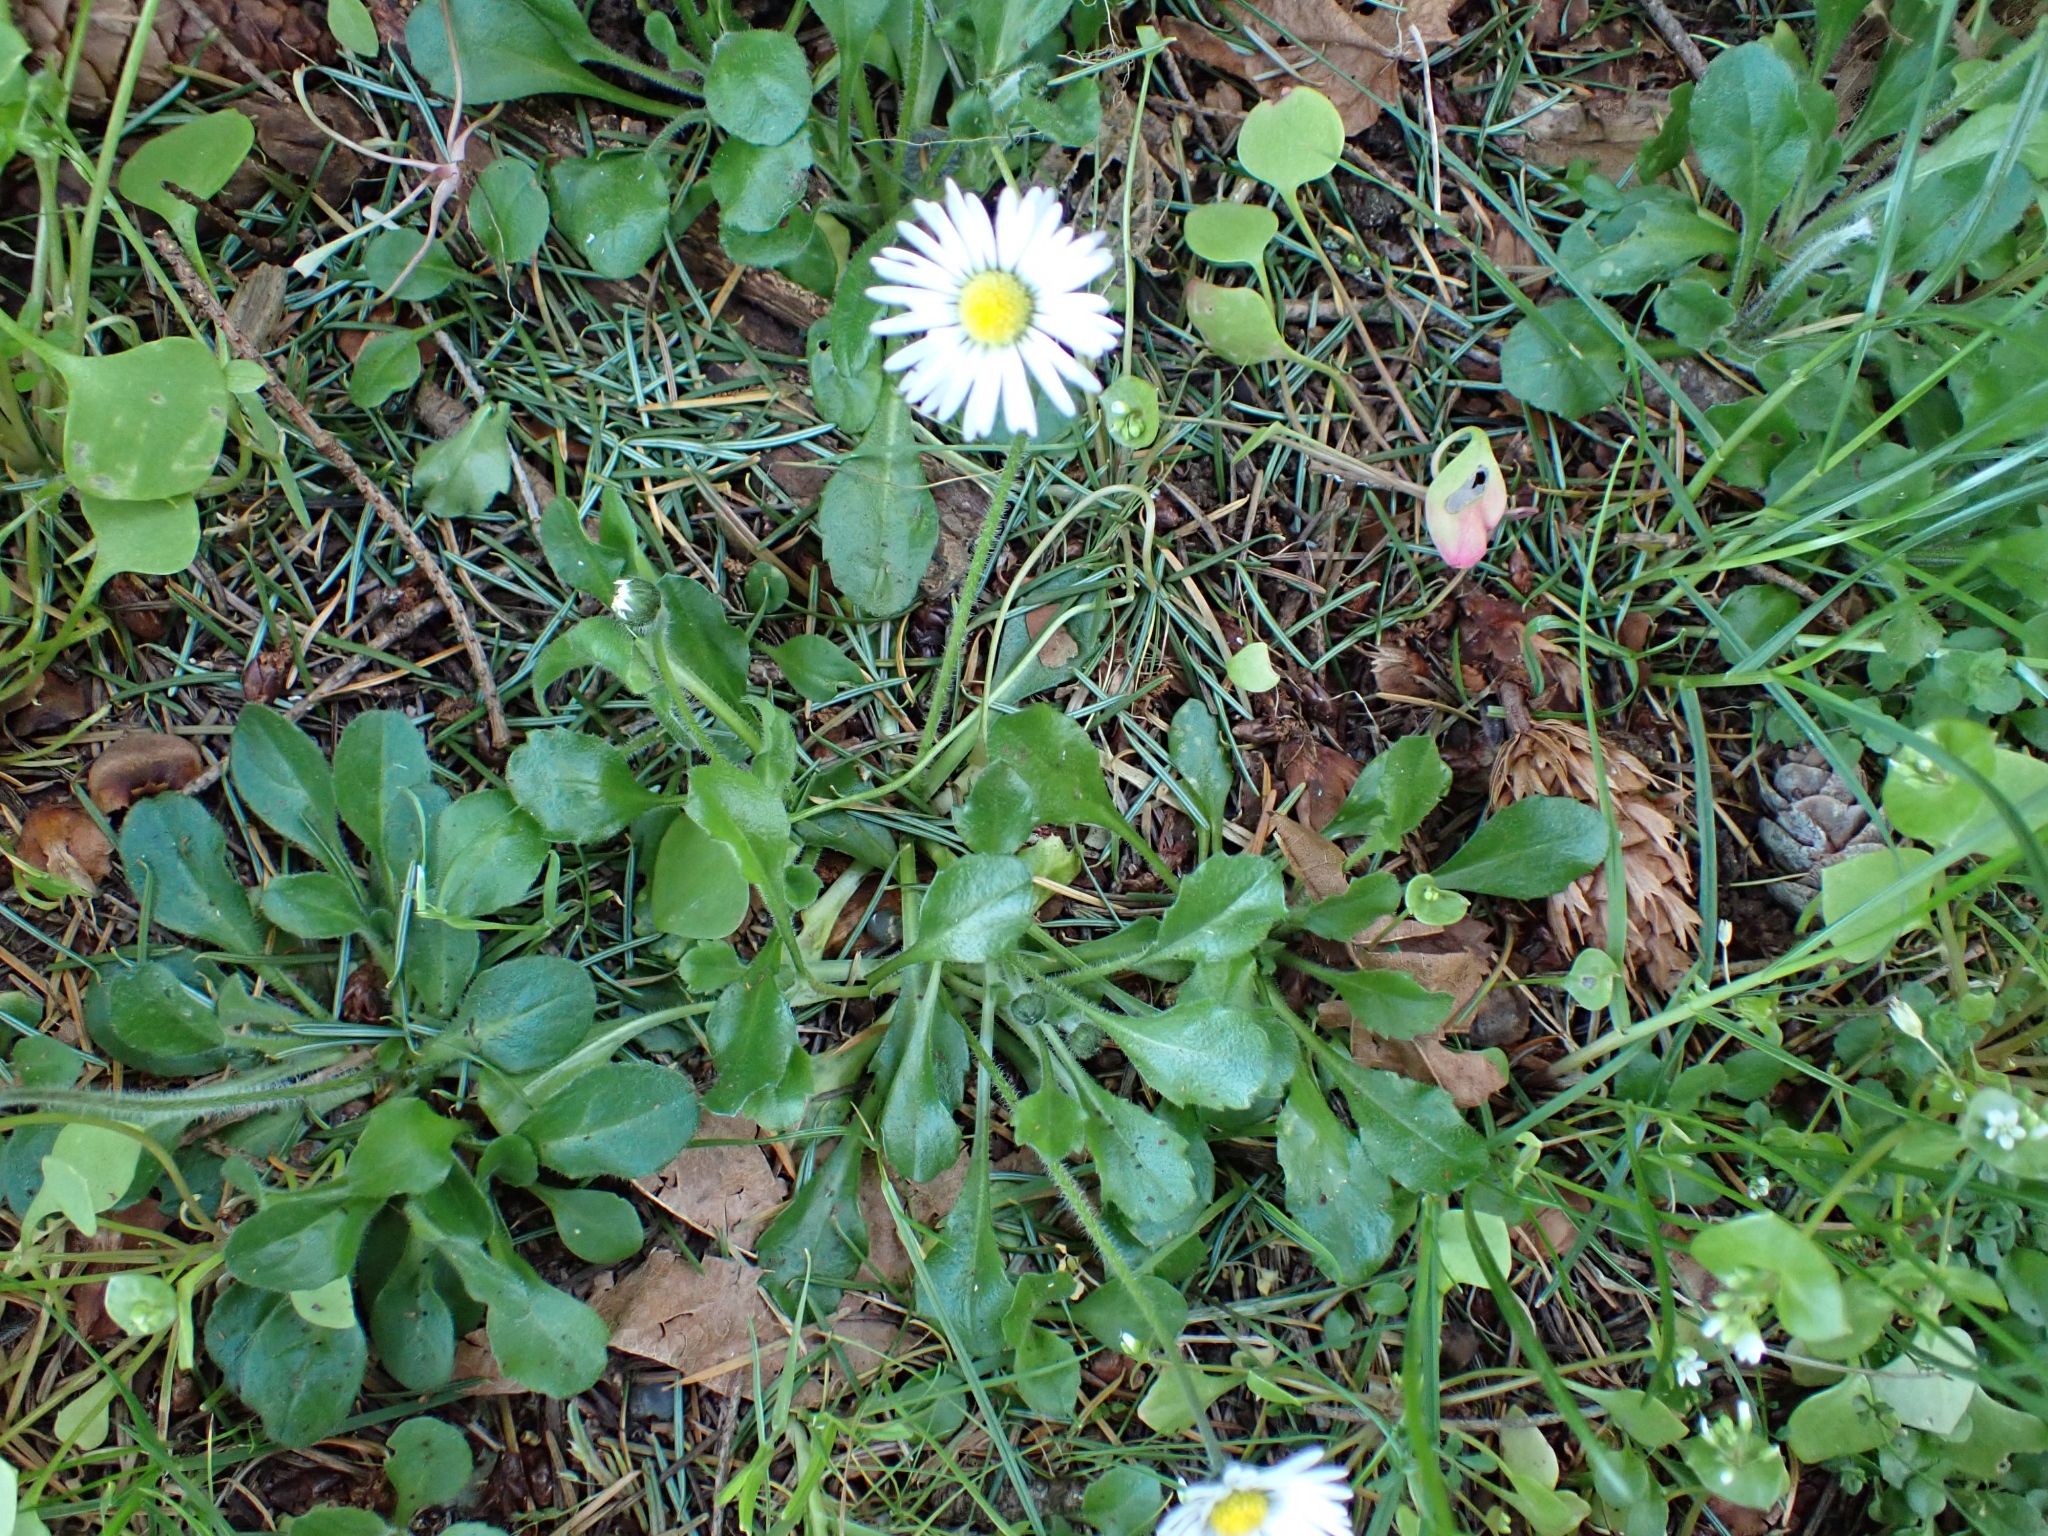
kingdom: Plantae
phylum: Tracheophyta
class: Magnoliopsida
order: Asterales
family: Asteraceae
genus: Bellis
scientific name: Bellis perennis
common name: Lawndaisy
